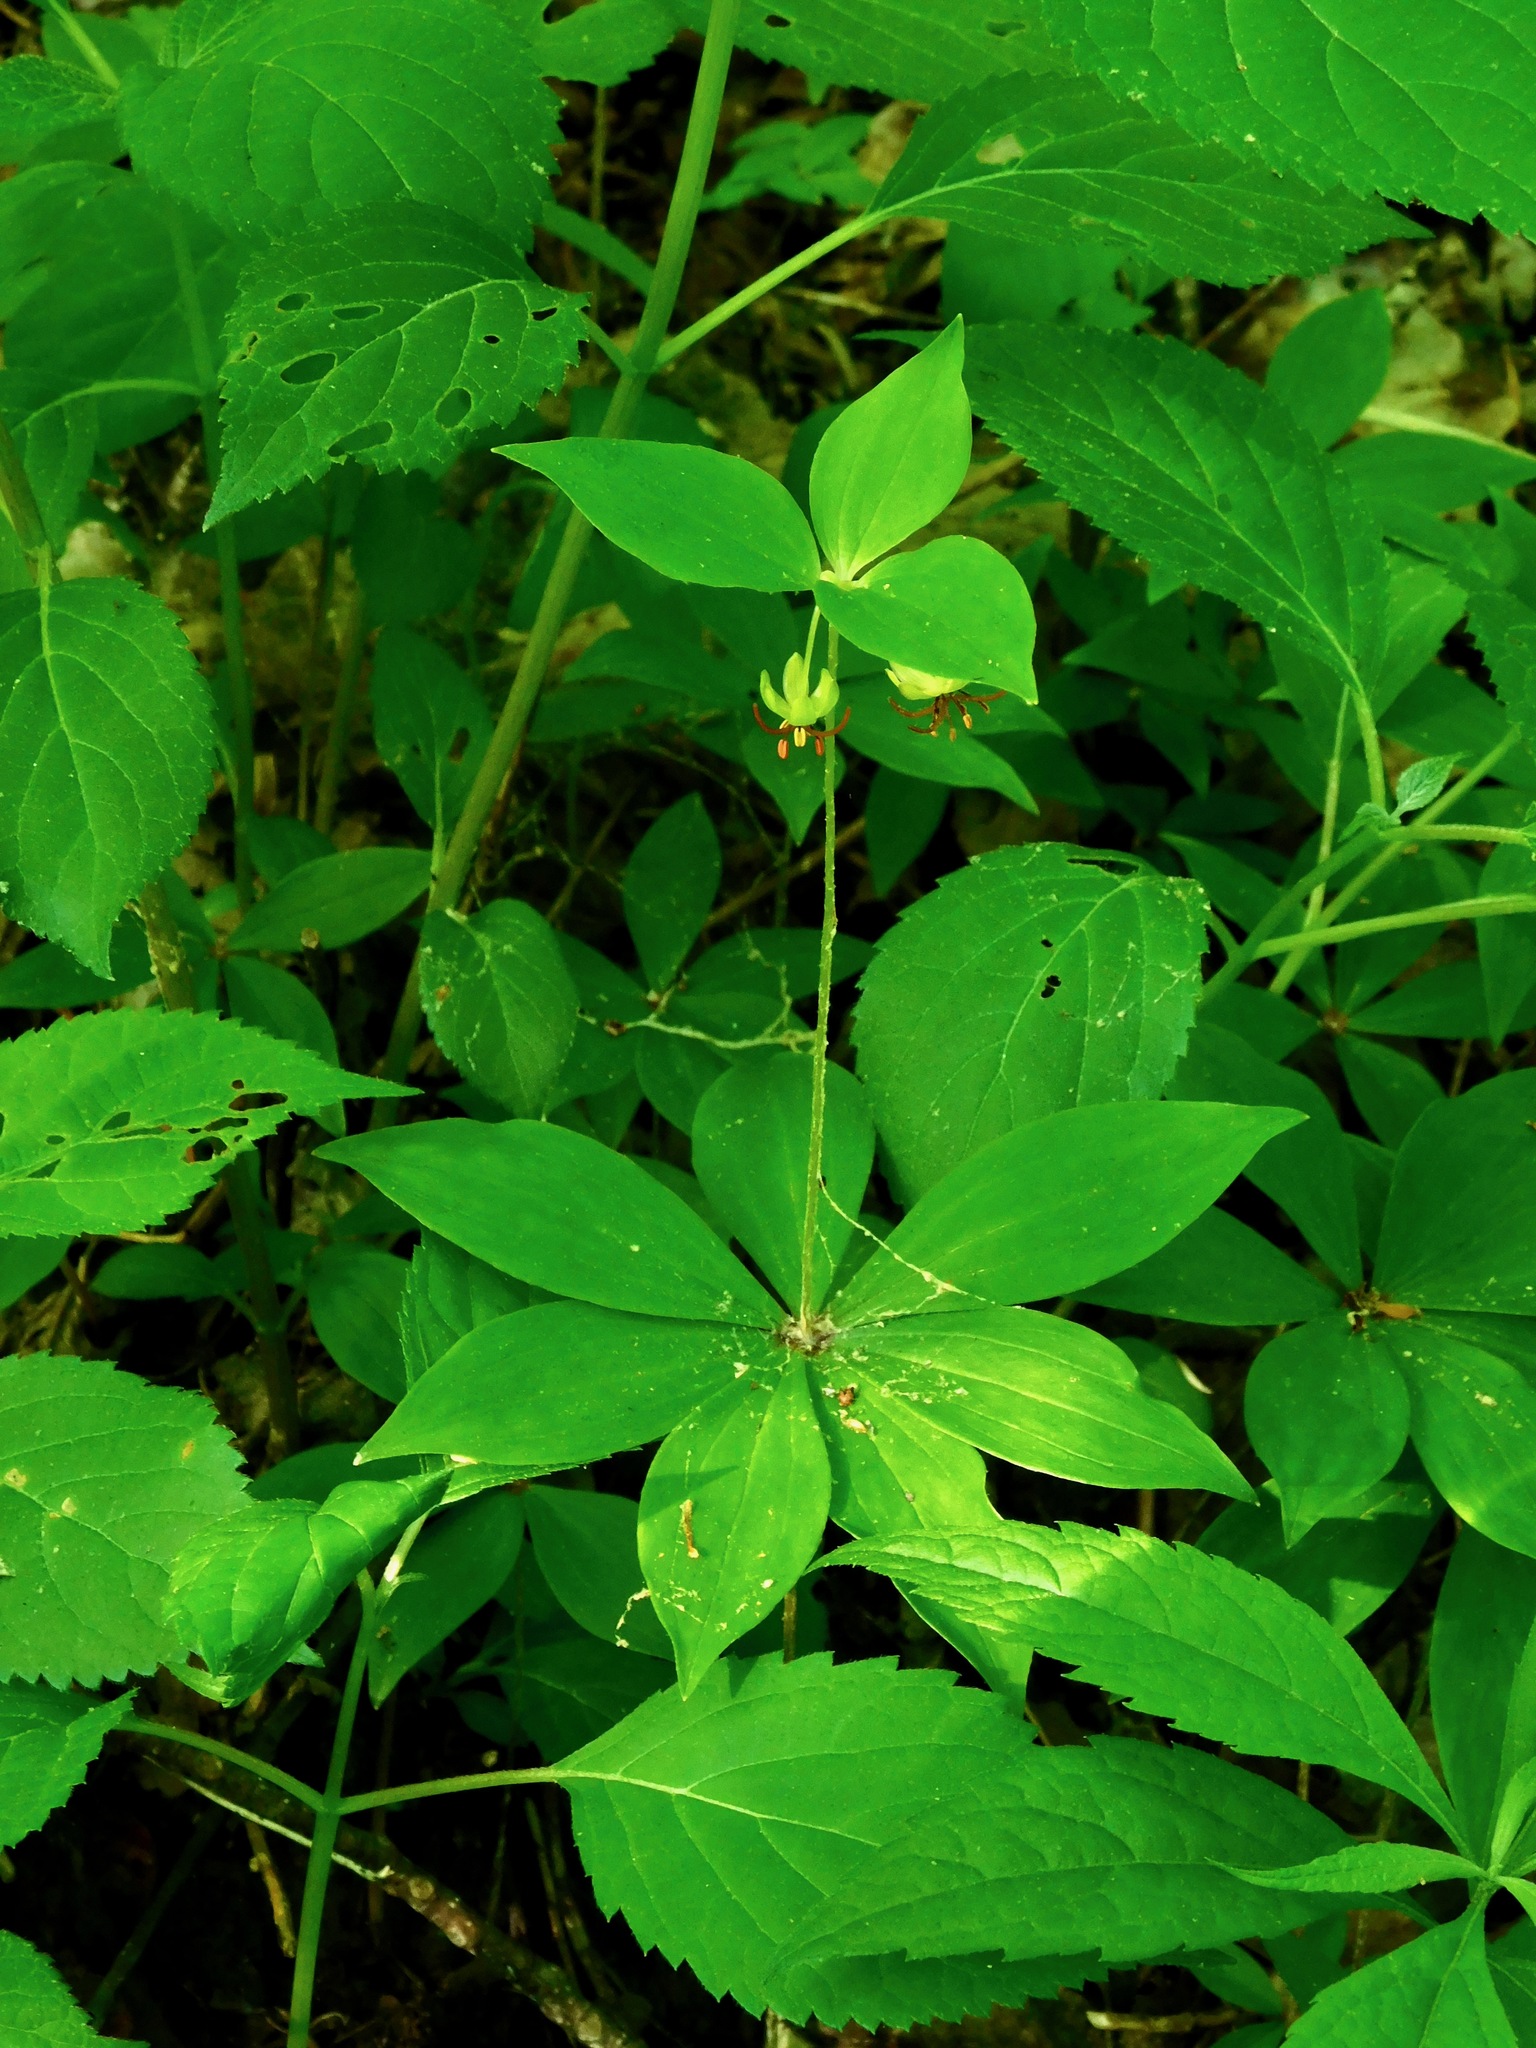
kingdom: Plantae
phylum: Tracheophyta
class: Liliopsida
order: Liliales
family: Liliaceae
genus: Medeola
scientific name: Medeola virginiana
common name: Indian cucumber-root
